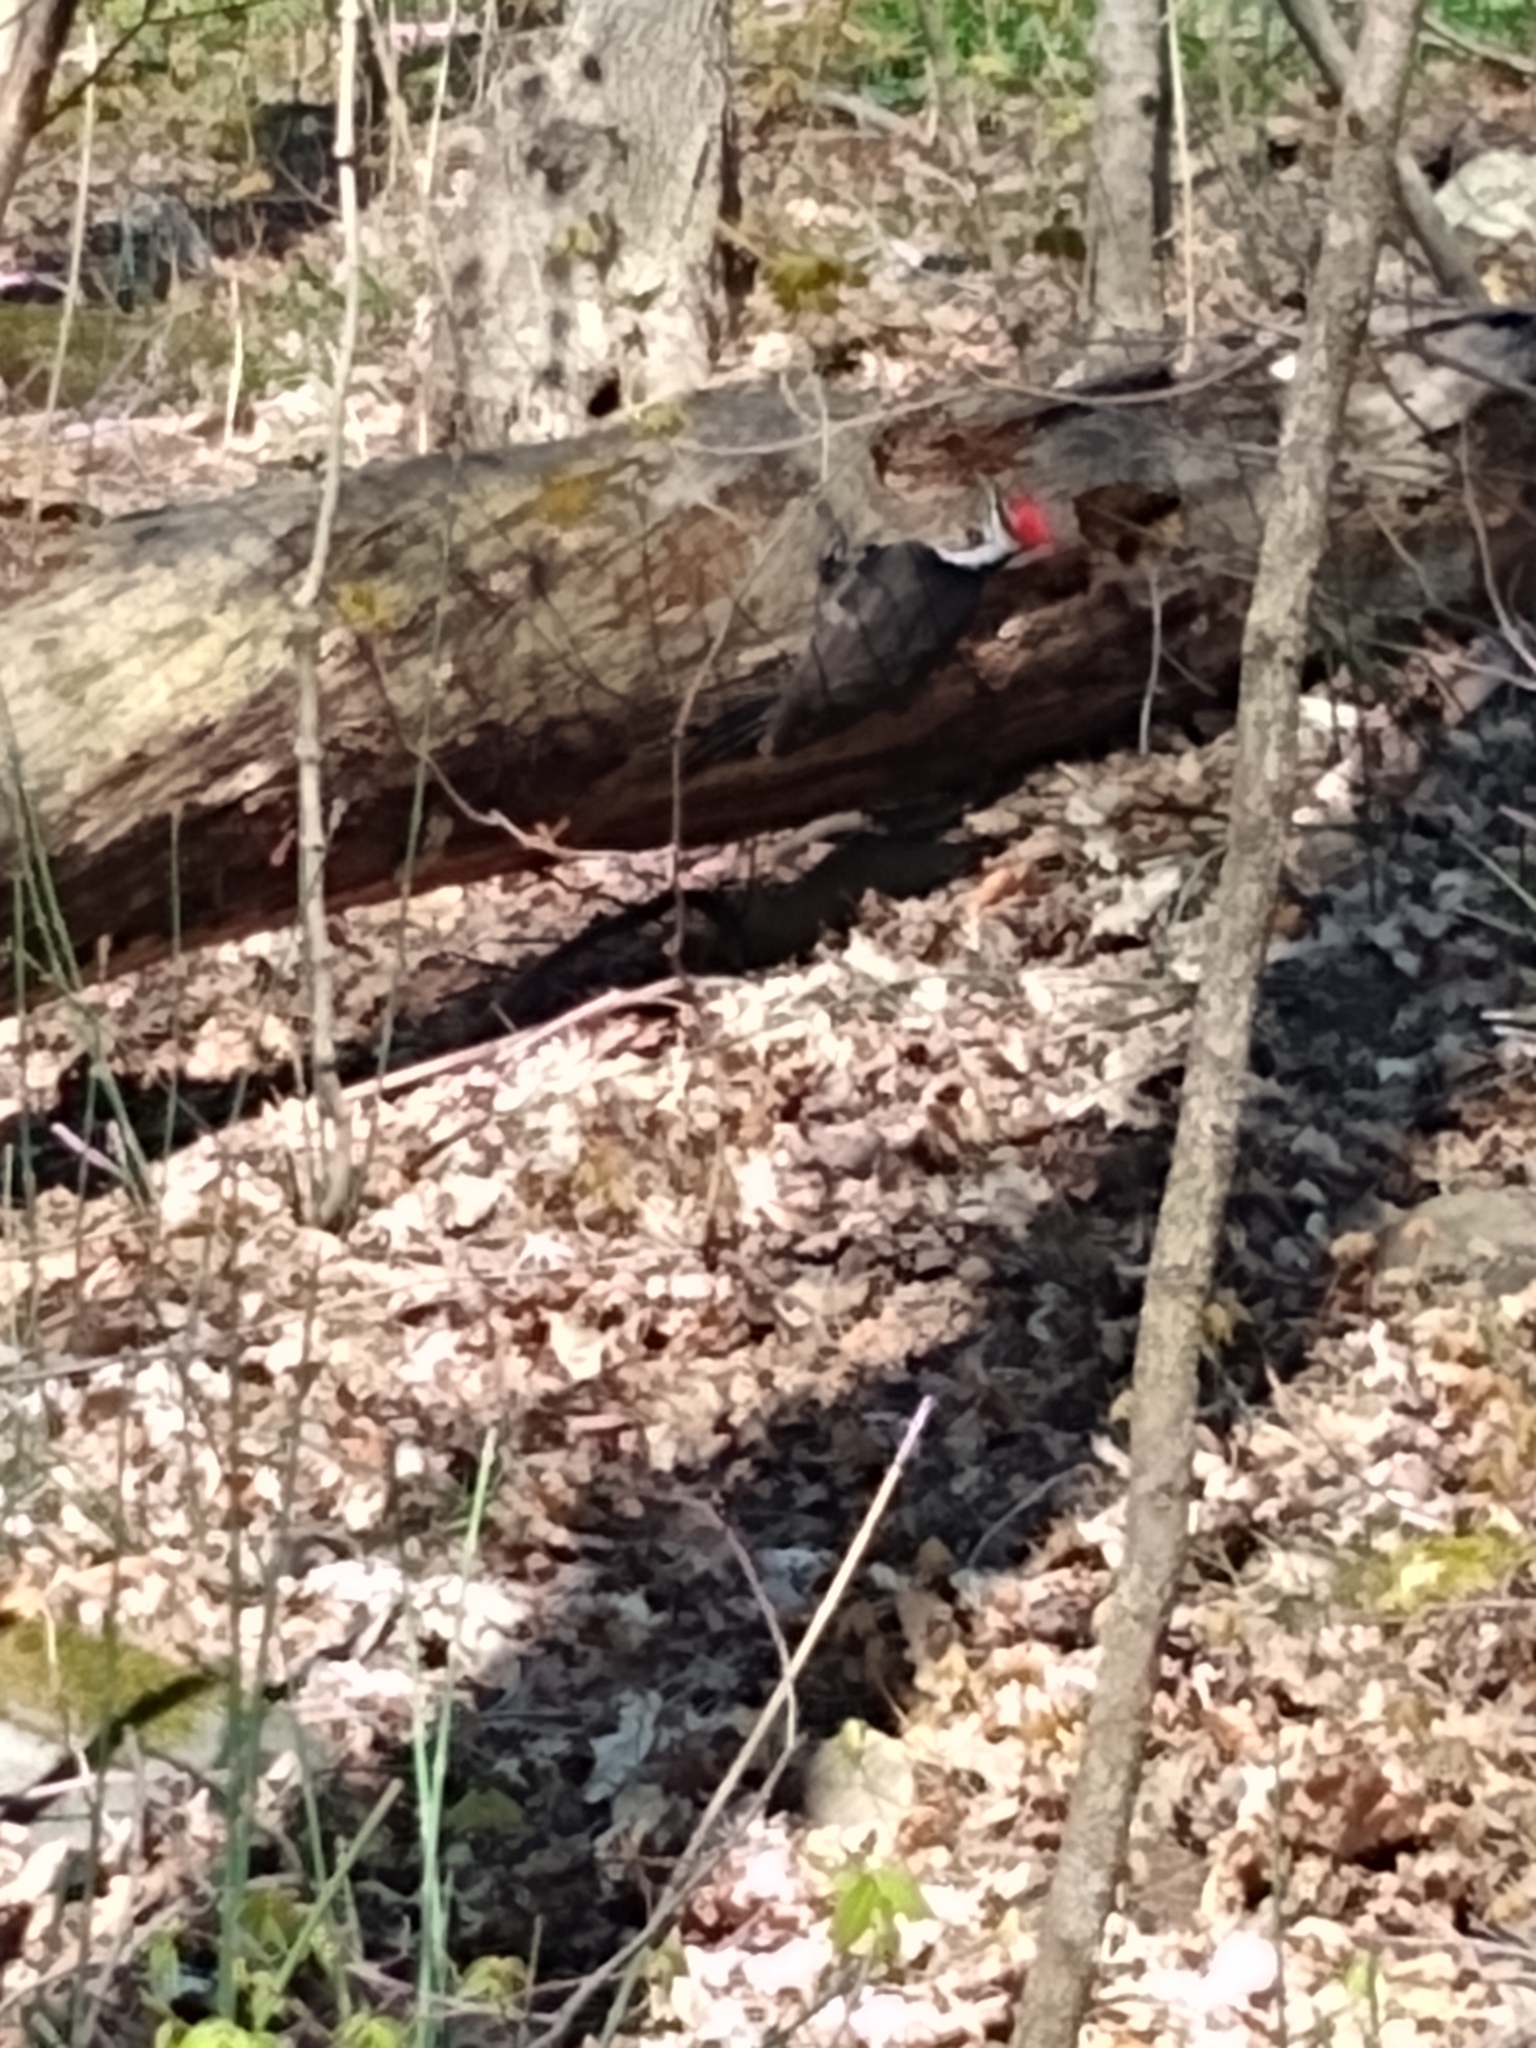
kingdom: Animalia
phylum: Chordata
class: Aves
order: Piciformes
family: Picidae
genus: Dryocopus
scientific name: Dryocopus pileatus
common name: Pileated woodpecker
